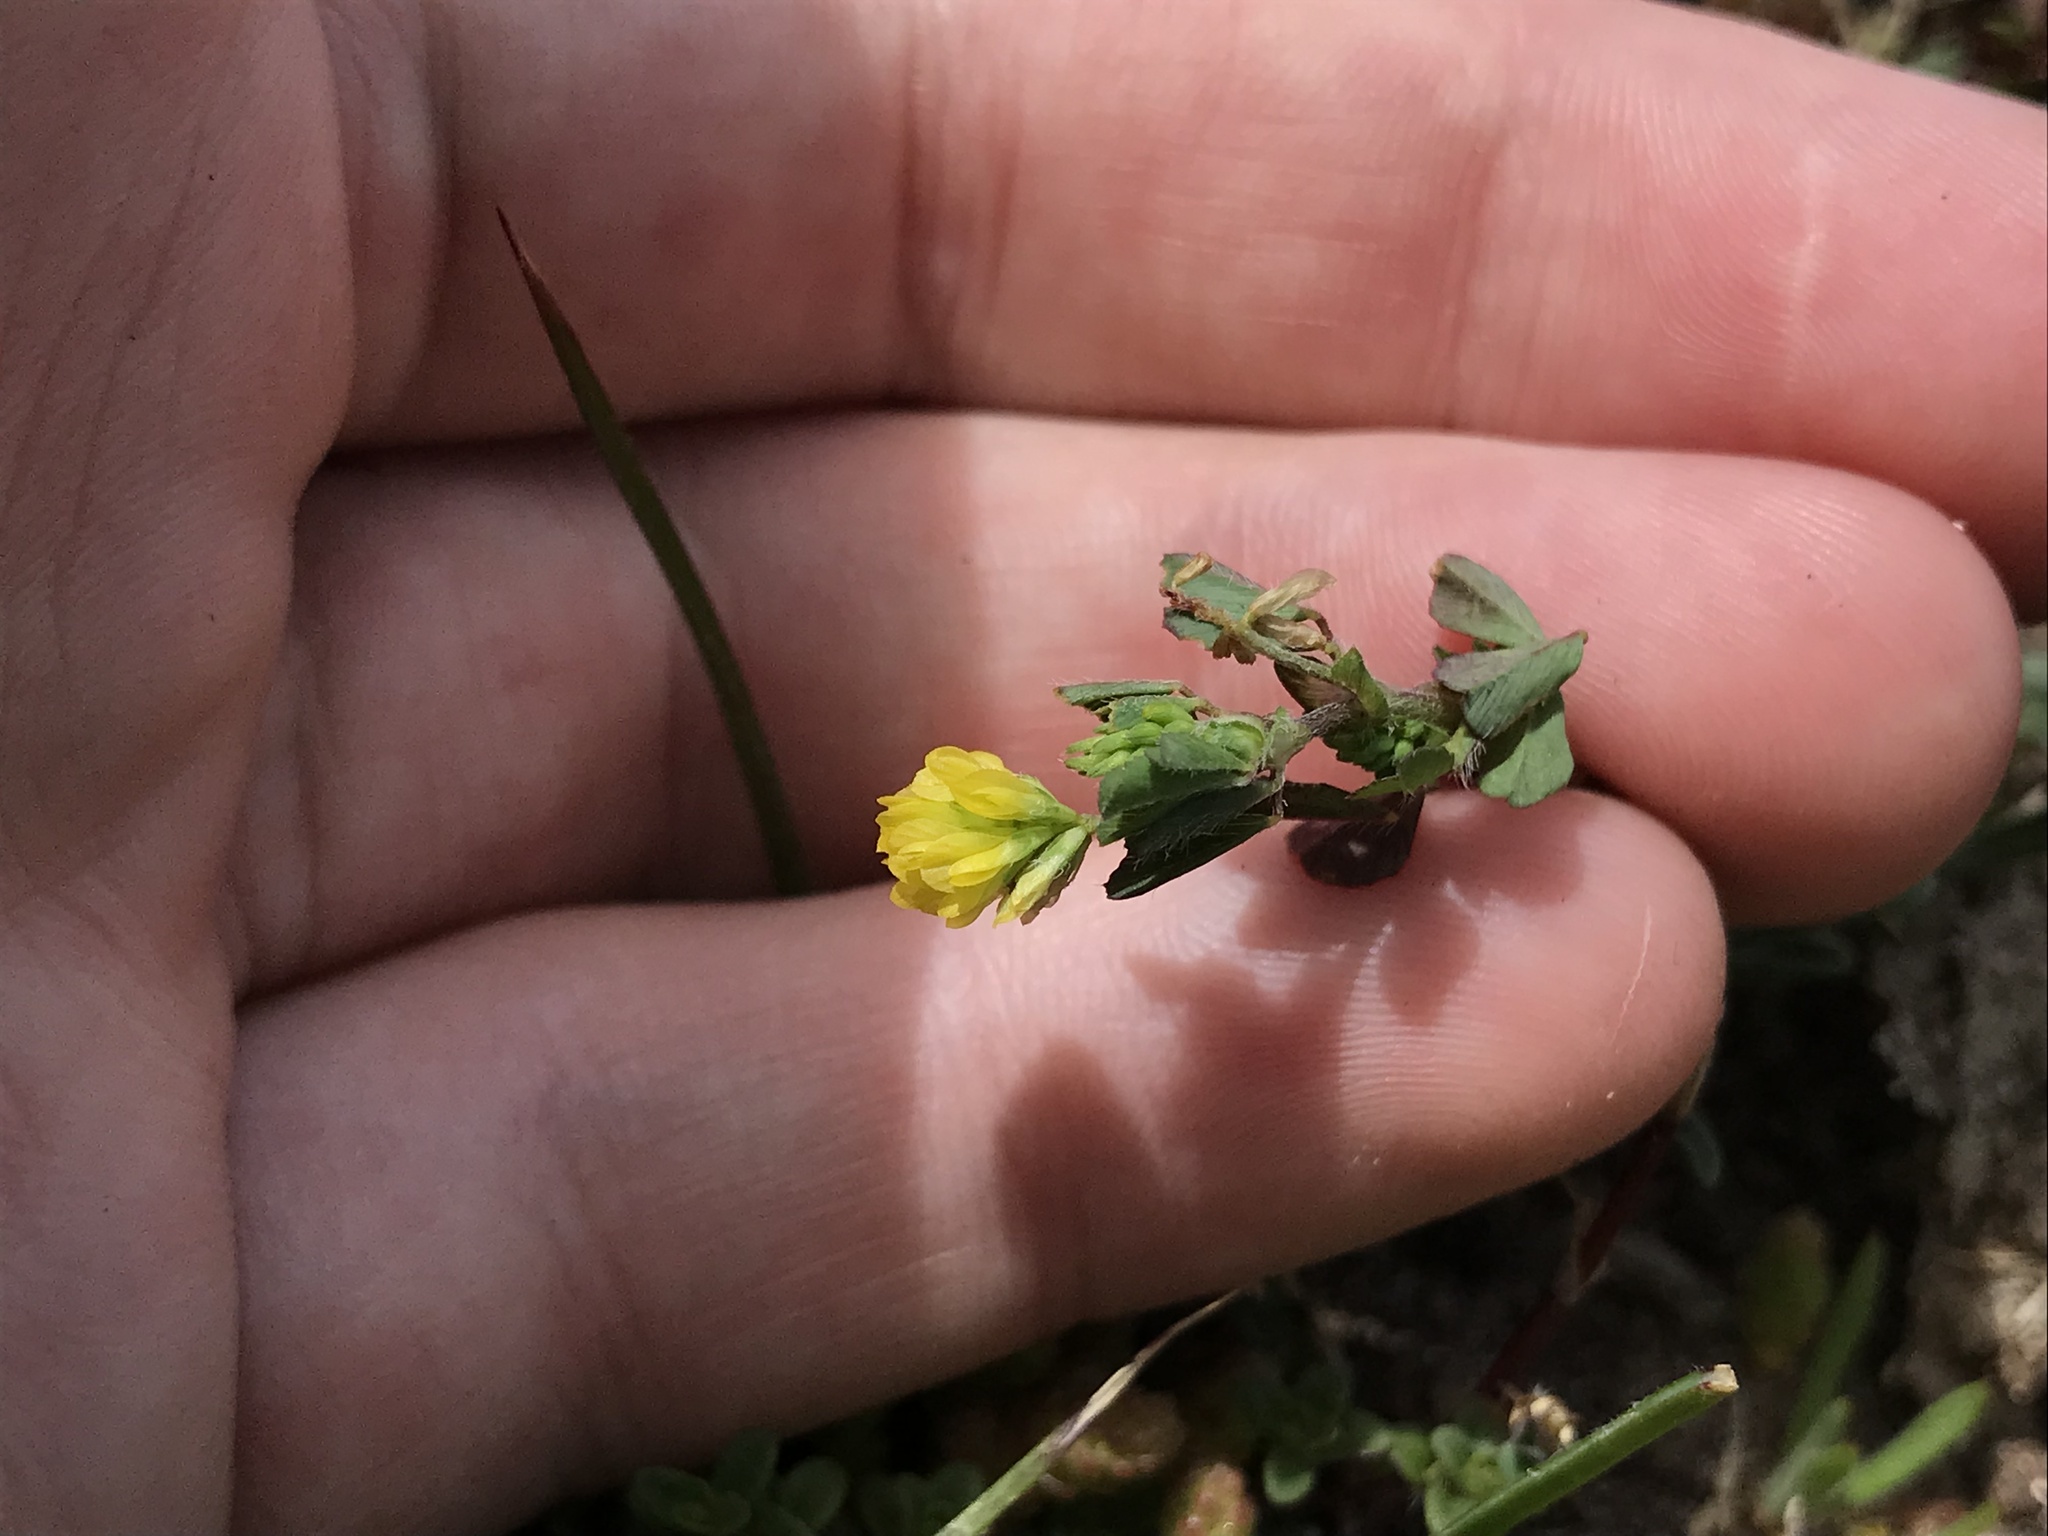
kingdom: Plantae
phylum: Tracheophyta
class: Magnoliopsida
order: Fabales
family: Fabaceae
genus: Trifolium
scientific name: Trifolium dubium
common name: Suckling clover
